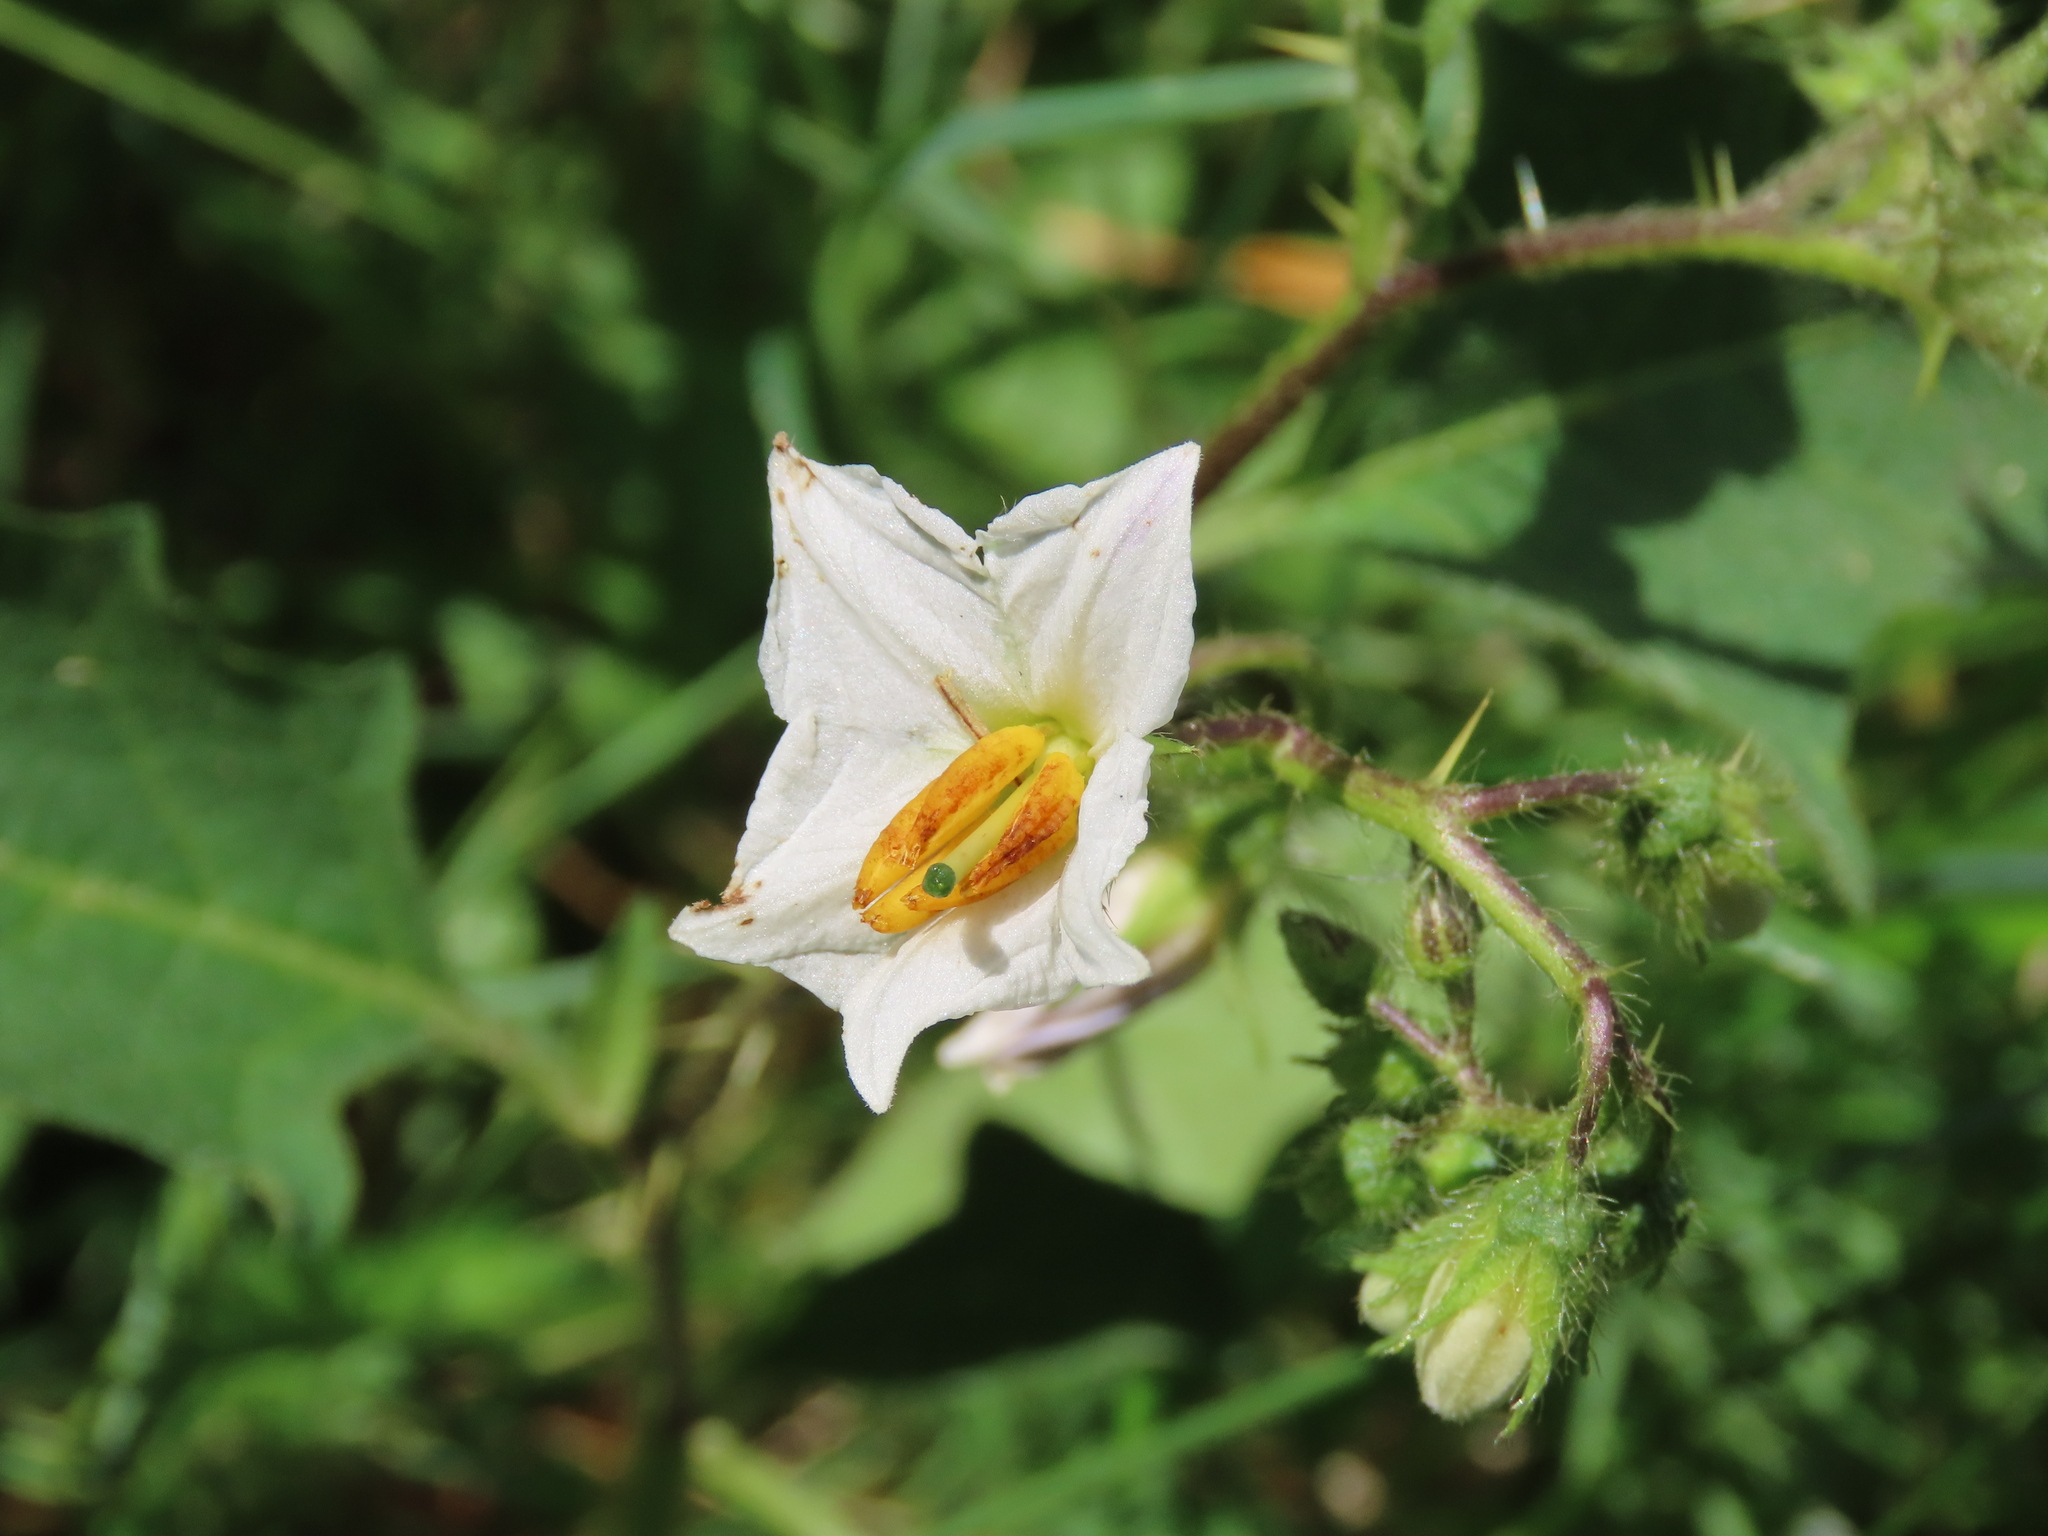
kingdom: Plantae
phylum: Tracheophyta
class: Magnoliopsida
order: Solanales
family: Solanaceae
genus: Solanum
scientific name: Solanum carolinense
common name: Horse-nettle
